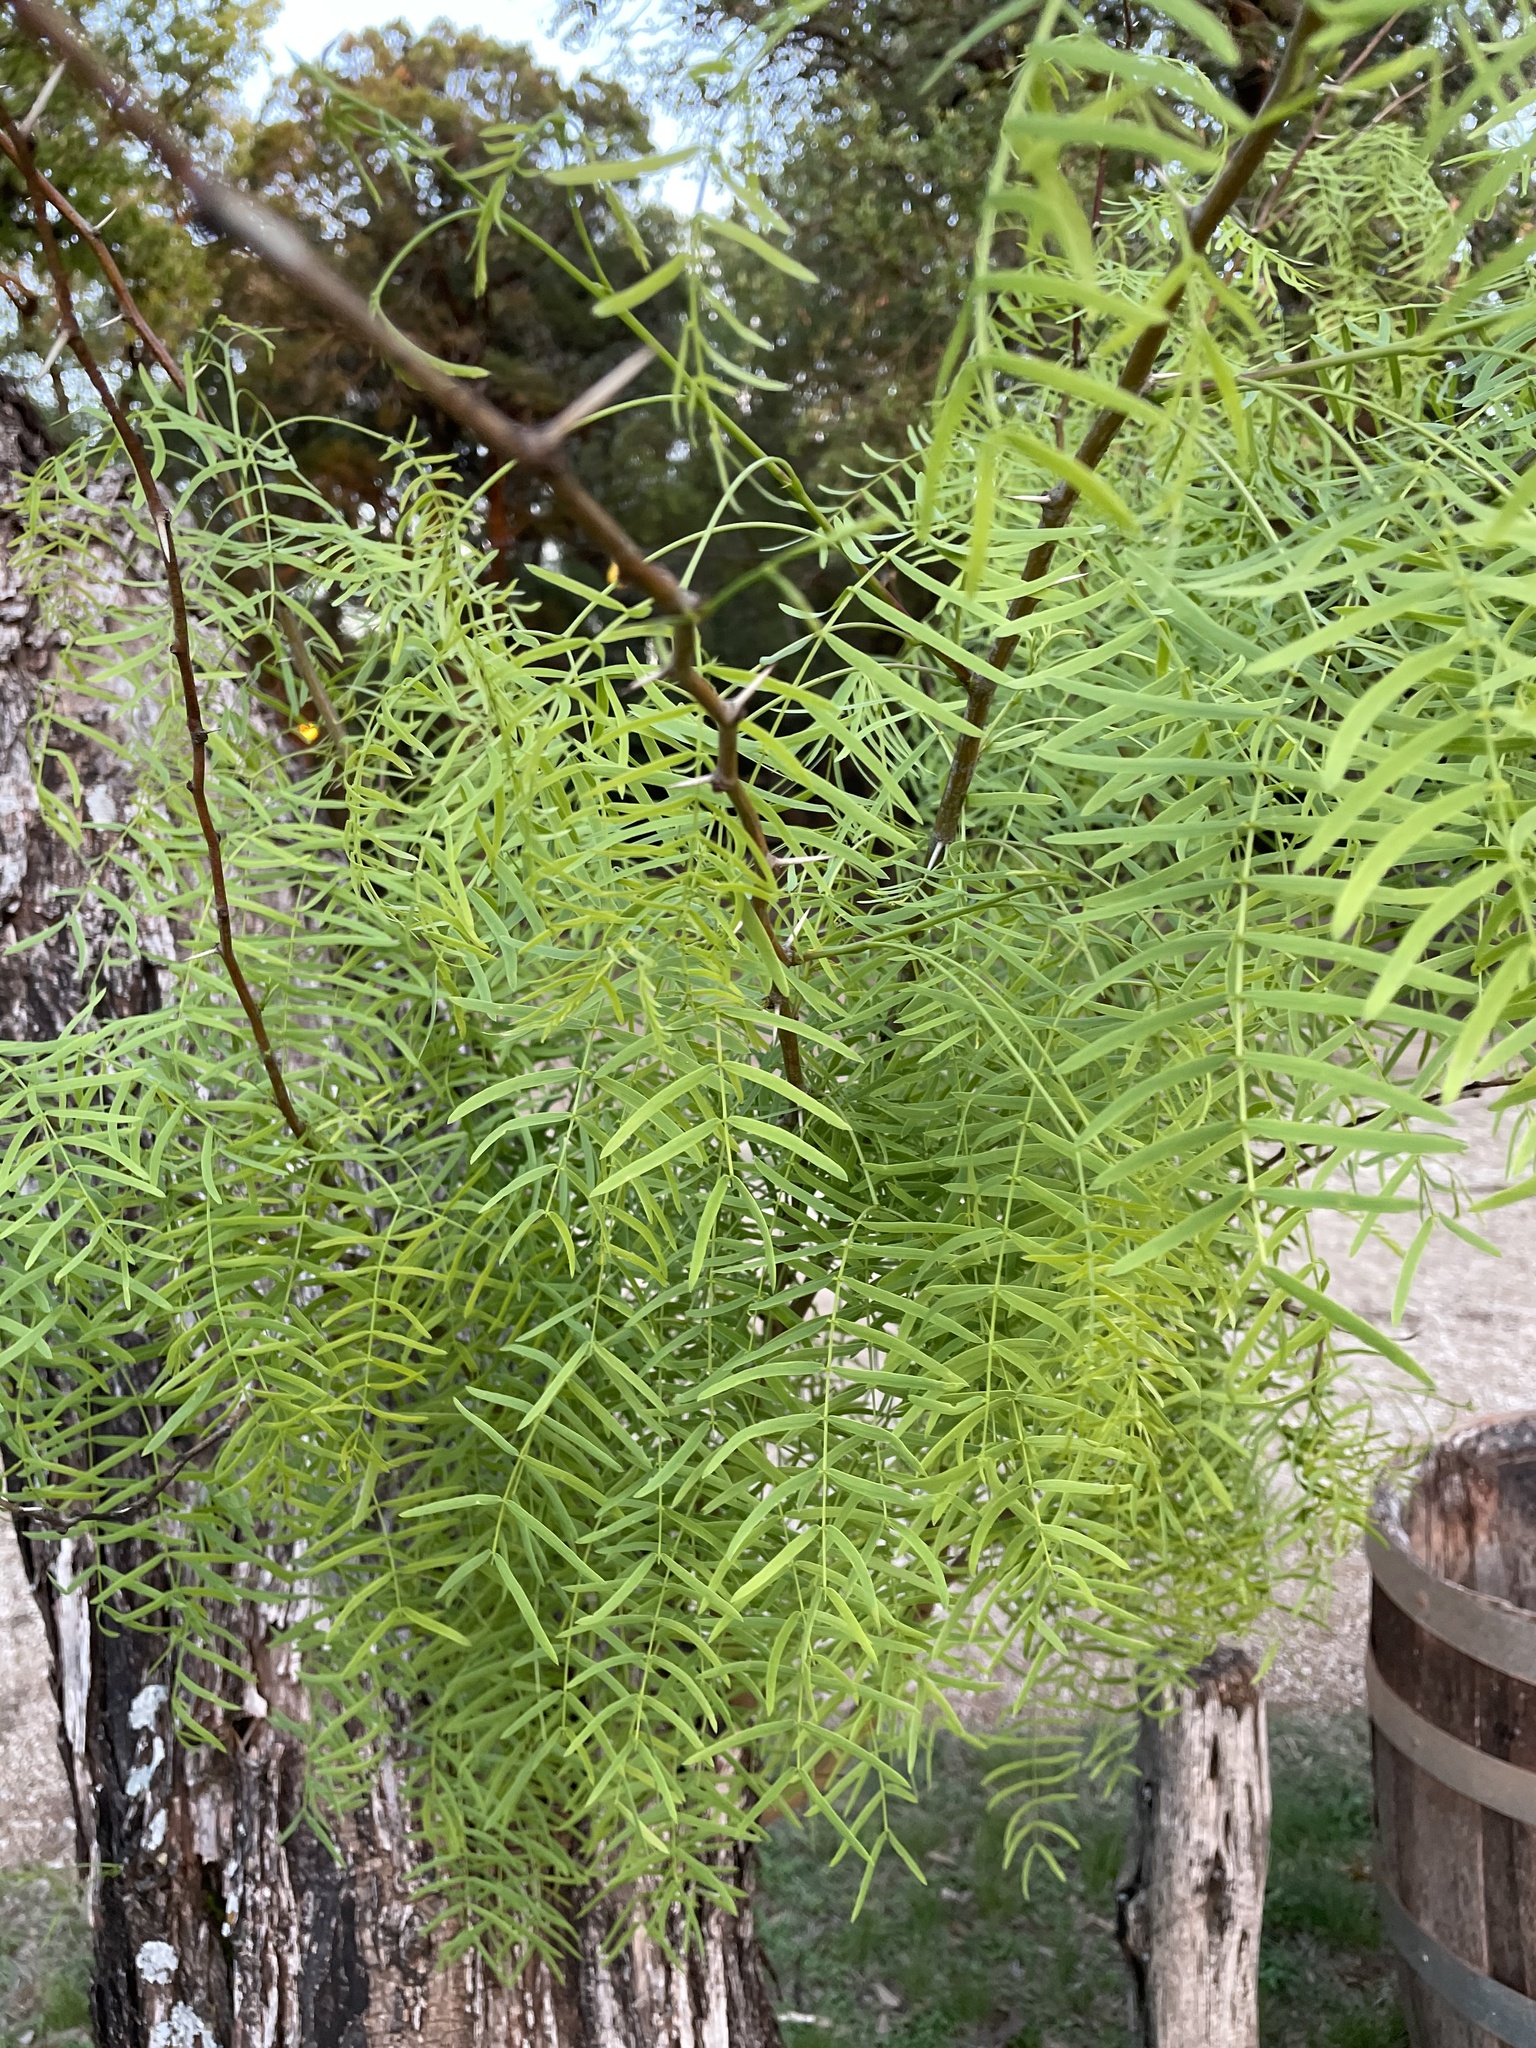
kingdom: Plantae
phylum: Tracheophyta
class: Magnoliopsida
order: Fabales
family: Fabaceae
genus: Prosopis
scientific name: Prosopis glandulosa
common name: Honey mesquite
